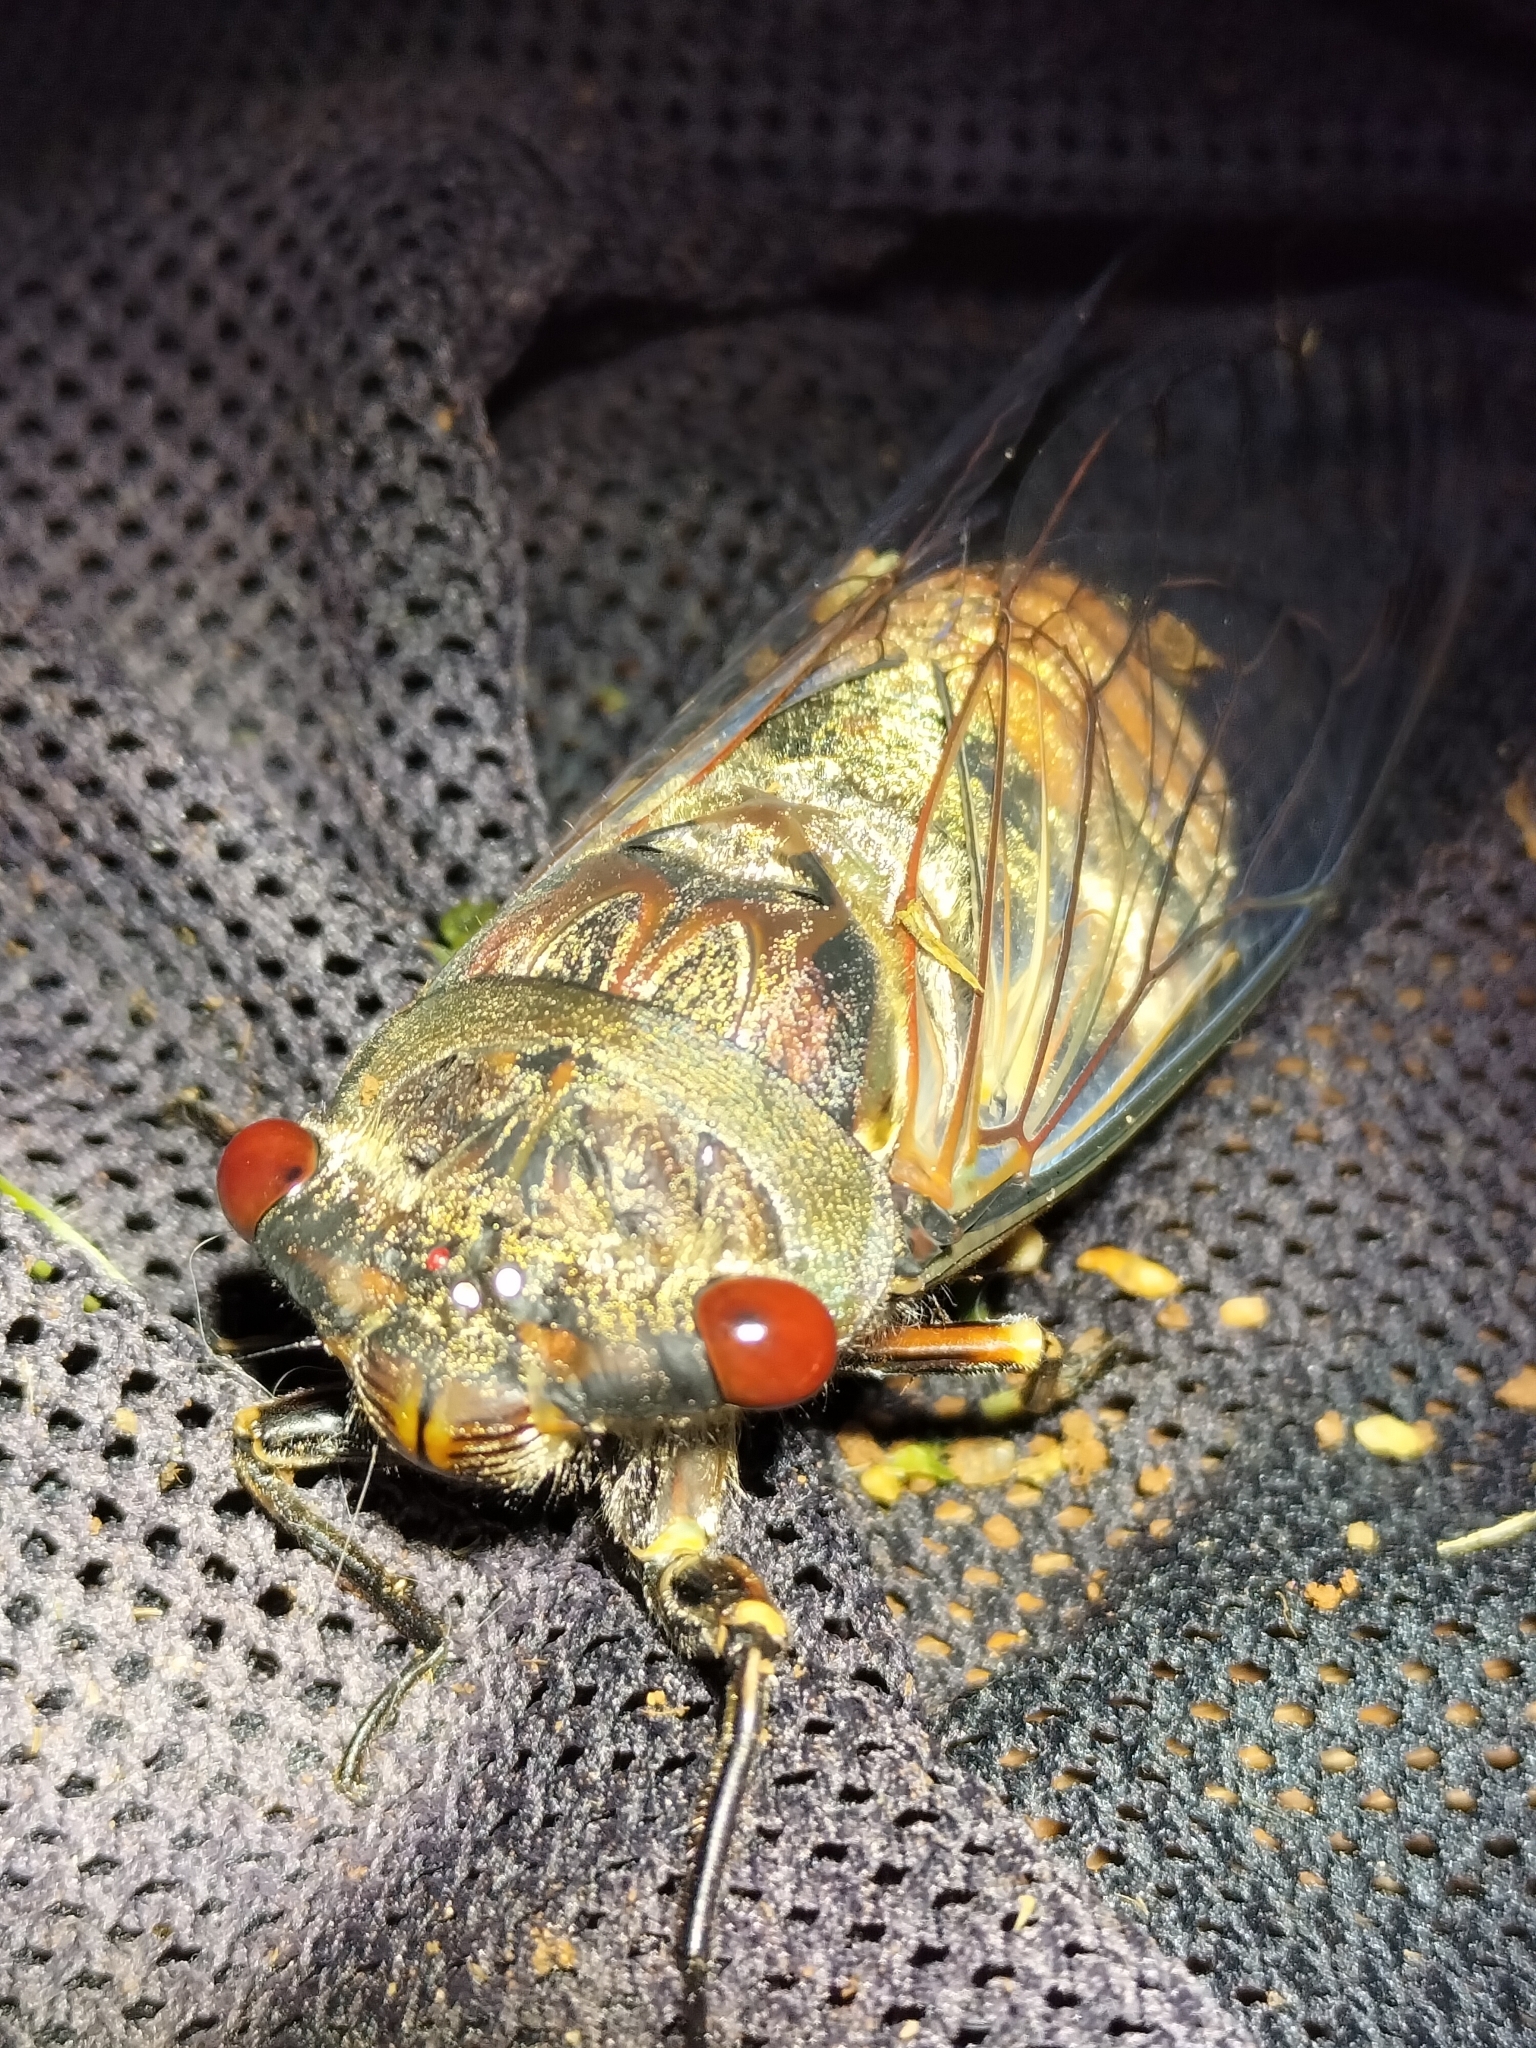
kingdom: Animalia
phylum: Arthropoda
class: Insecta
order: Hemiptera
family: Cicadidae
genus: Psaltoda
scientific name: Psaltoda aurora
